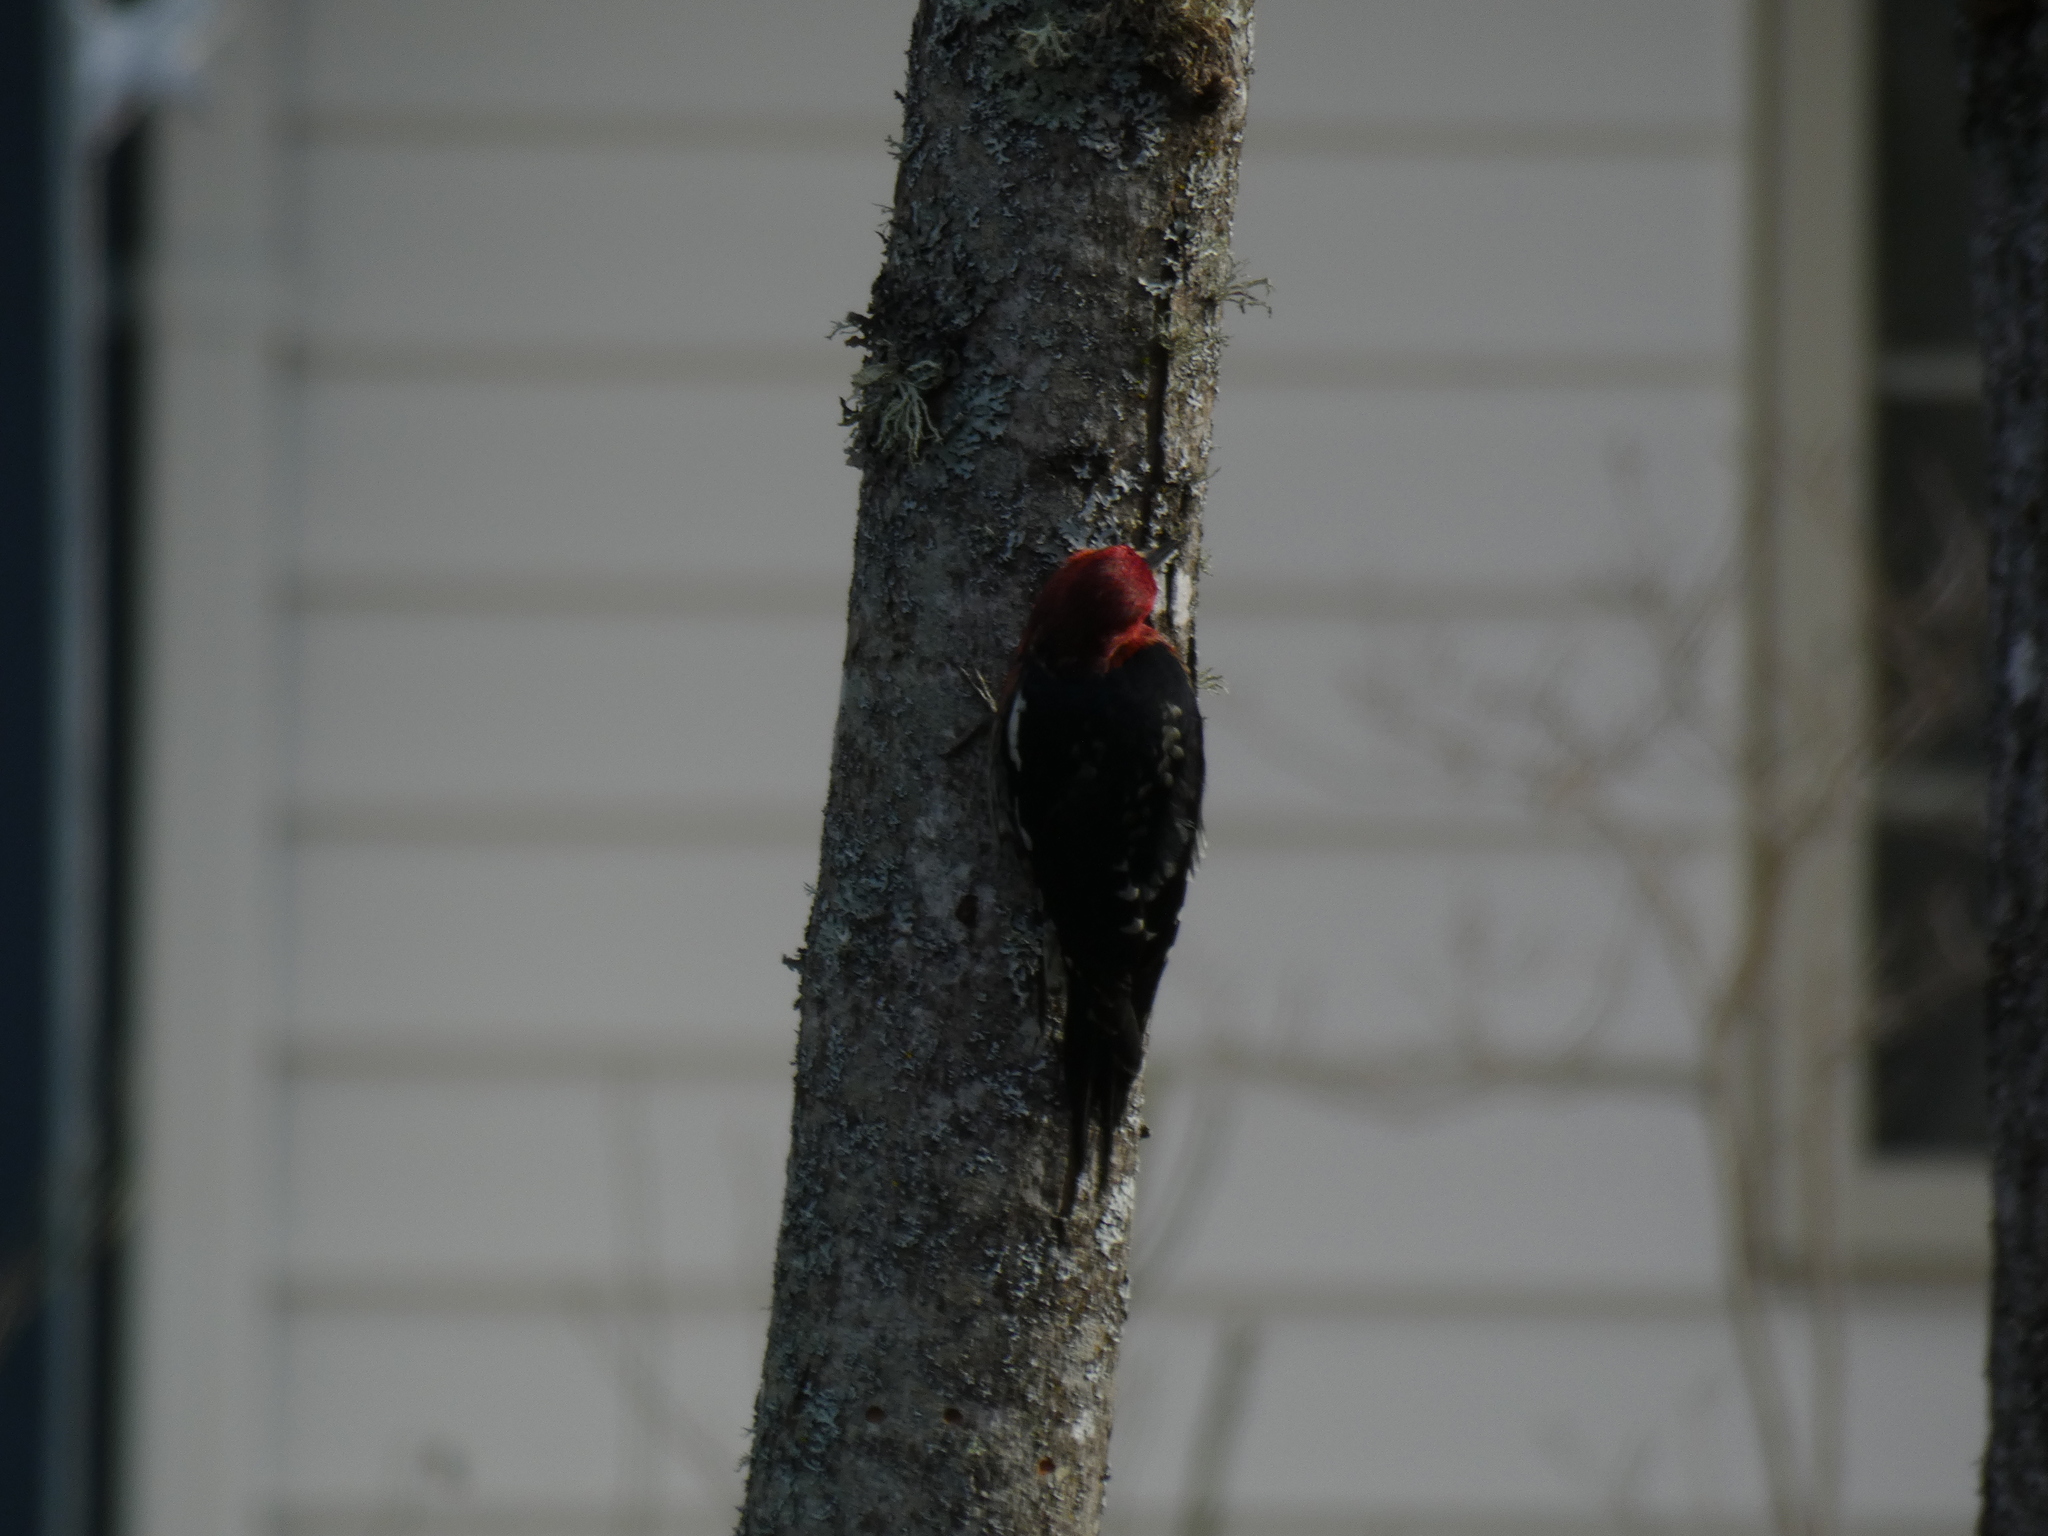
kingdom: Animalia
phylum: Chordata
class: Aves
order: Piciformes
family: Picidae
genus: Sphyrapicus
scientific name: Sphyrapicus ruber
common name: Red-breasted sapsucker
